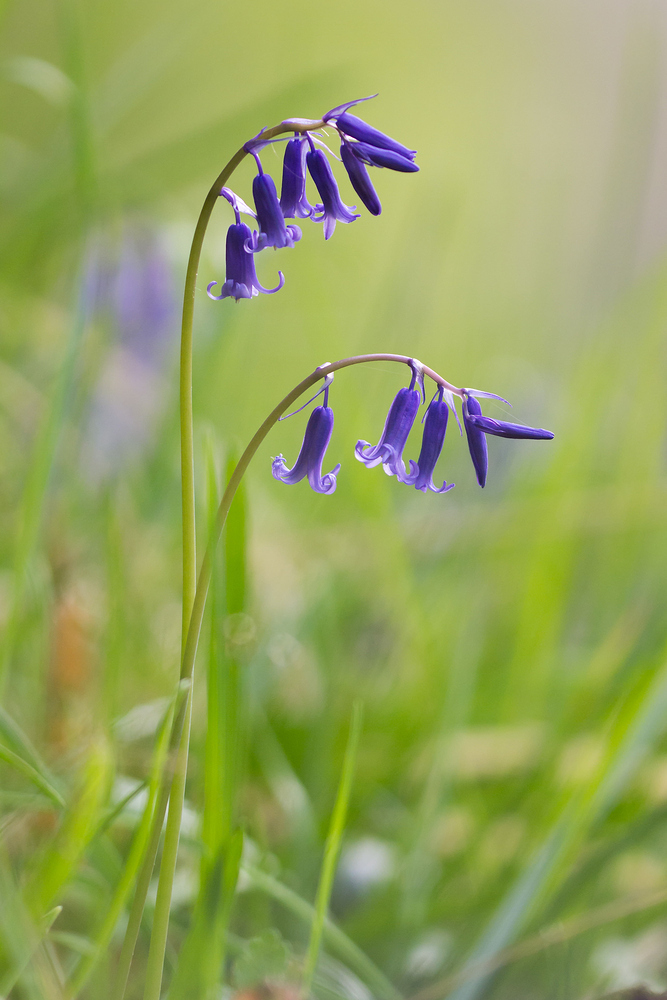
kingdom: Plantae
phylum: Tracheophyta
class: Liliopsida
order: Asparagales
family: Asparagaceae
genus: Hyacinthoides
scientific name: Hyacinthoides non-scripta
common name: Bluebell
